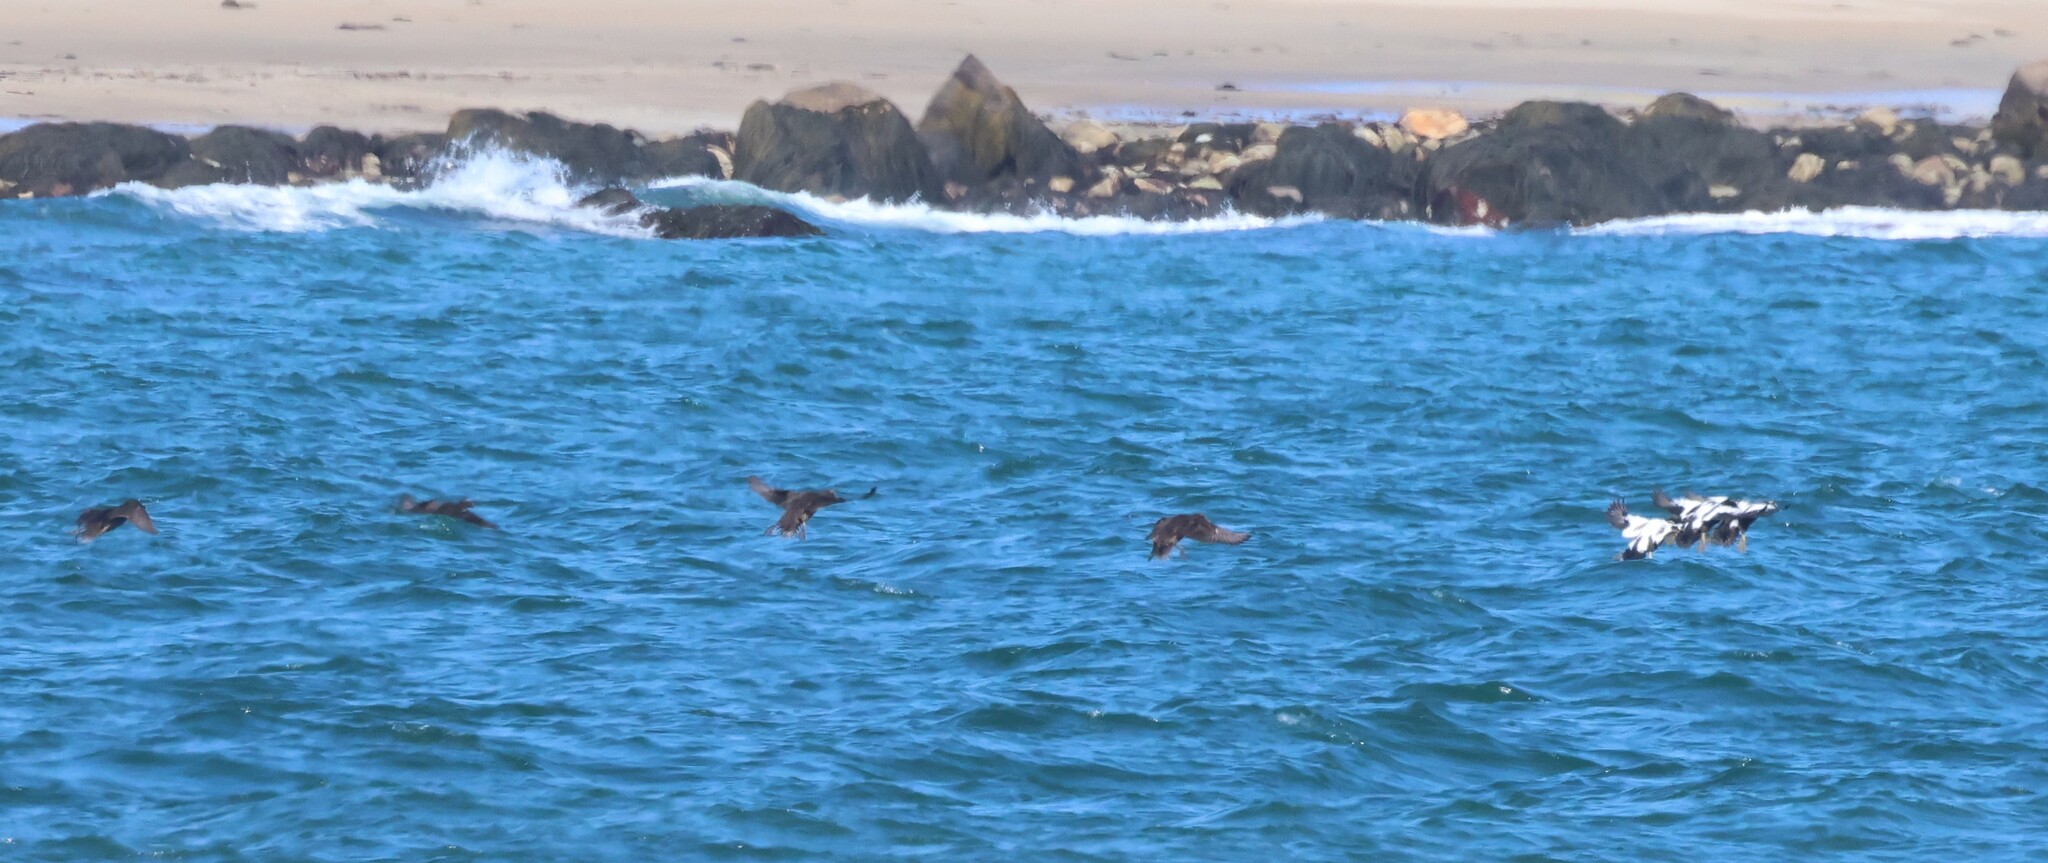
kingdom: Animalia
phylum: Chordata
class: Aves
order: Anseriformes
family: Anatidae
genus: Somateria
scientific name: Somateria mollissima
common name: Common eider
